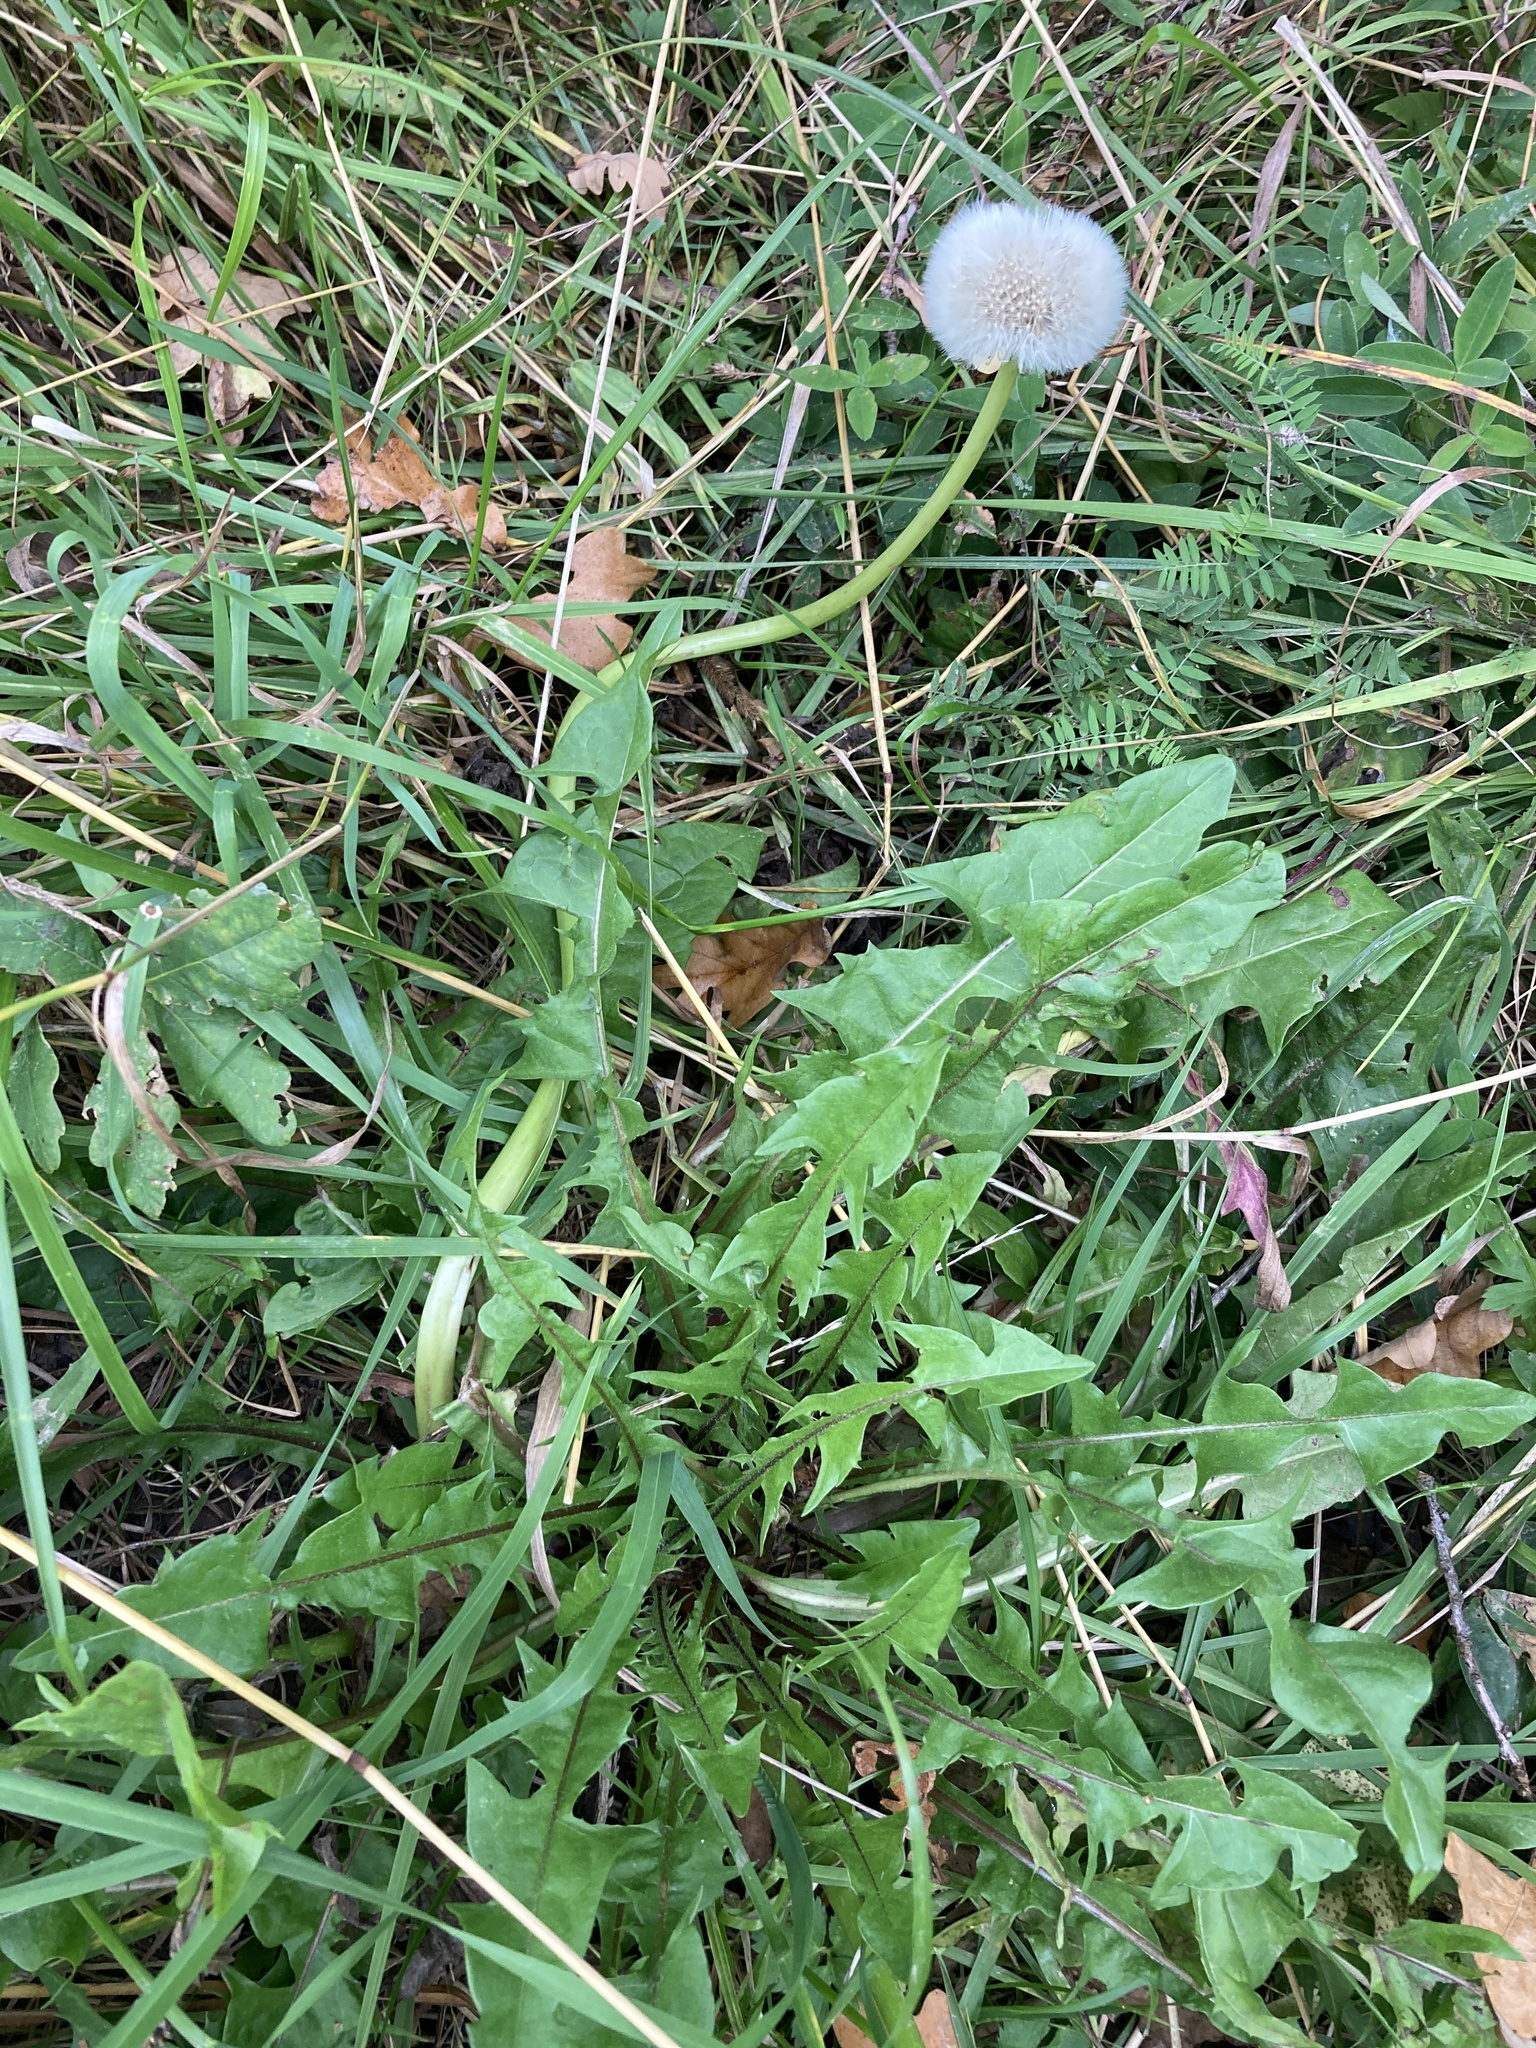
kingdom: Plantae
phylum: Tracheophyta
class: Magnoliopsida
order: Asterales
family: Asteraceae
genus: Taraxacum
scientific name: Taraxacum officinale
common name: Common dandelion
